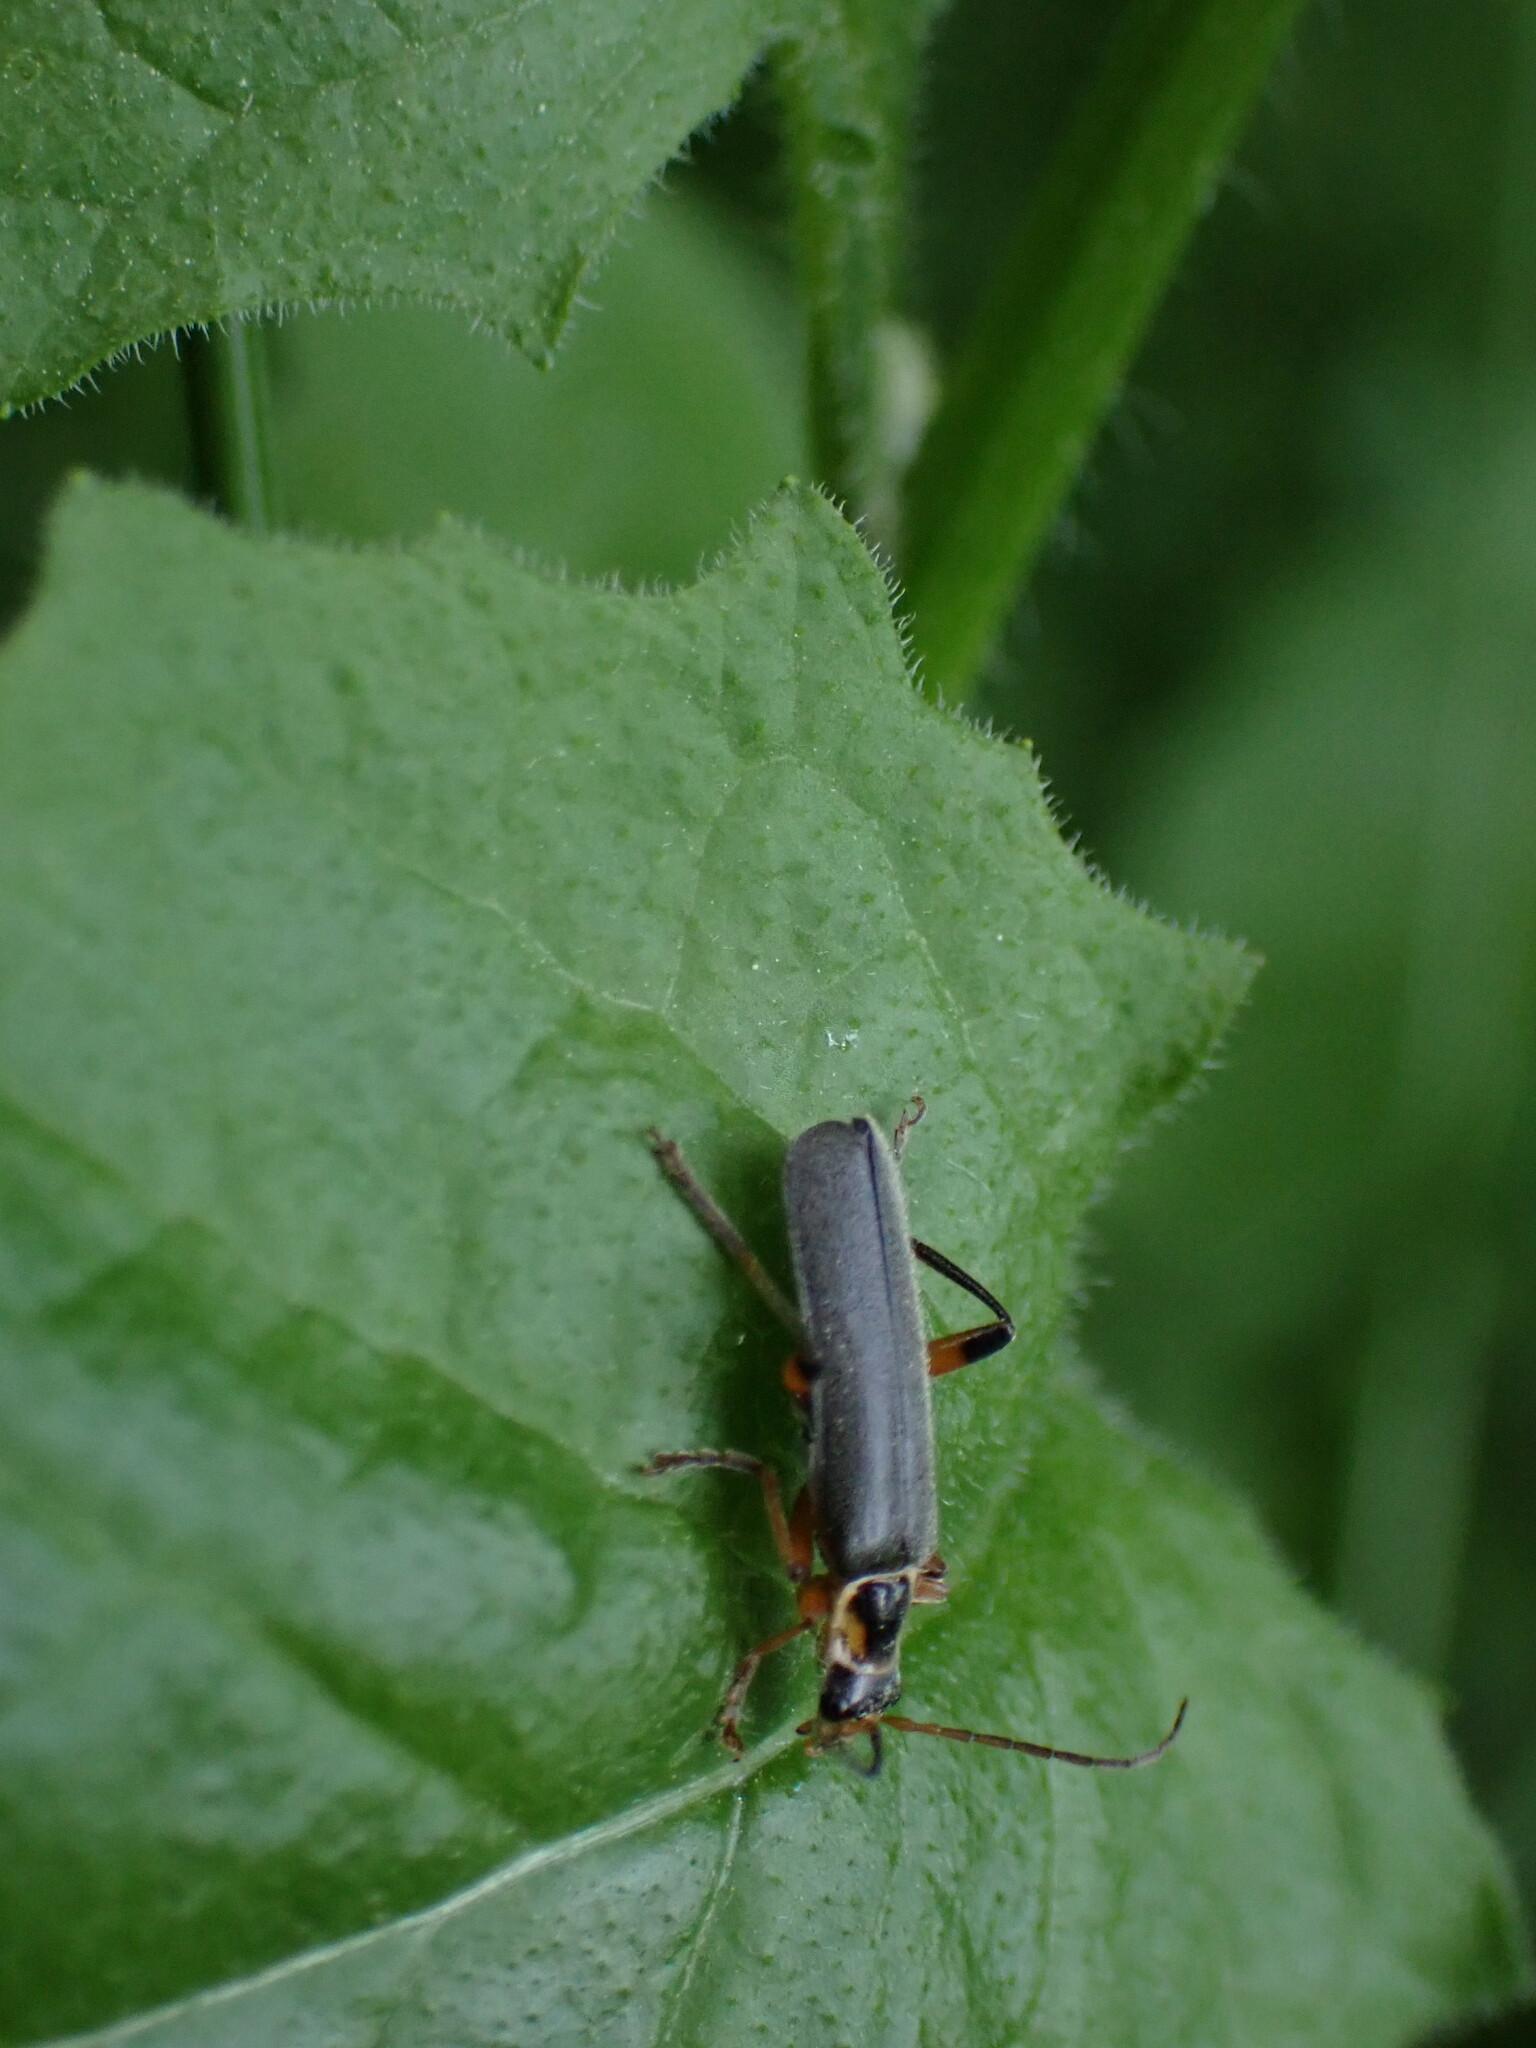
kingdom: Animalia
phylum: Arthropoda
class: Insecta
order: Coleoptera
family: Cantharidae
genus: Cantharis
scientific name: Cantharis nigricans
